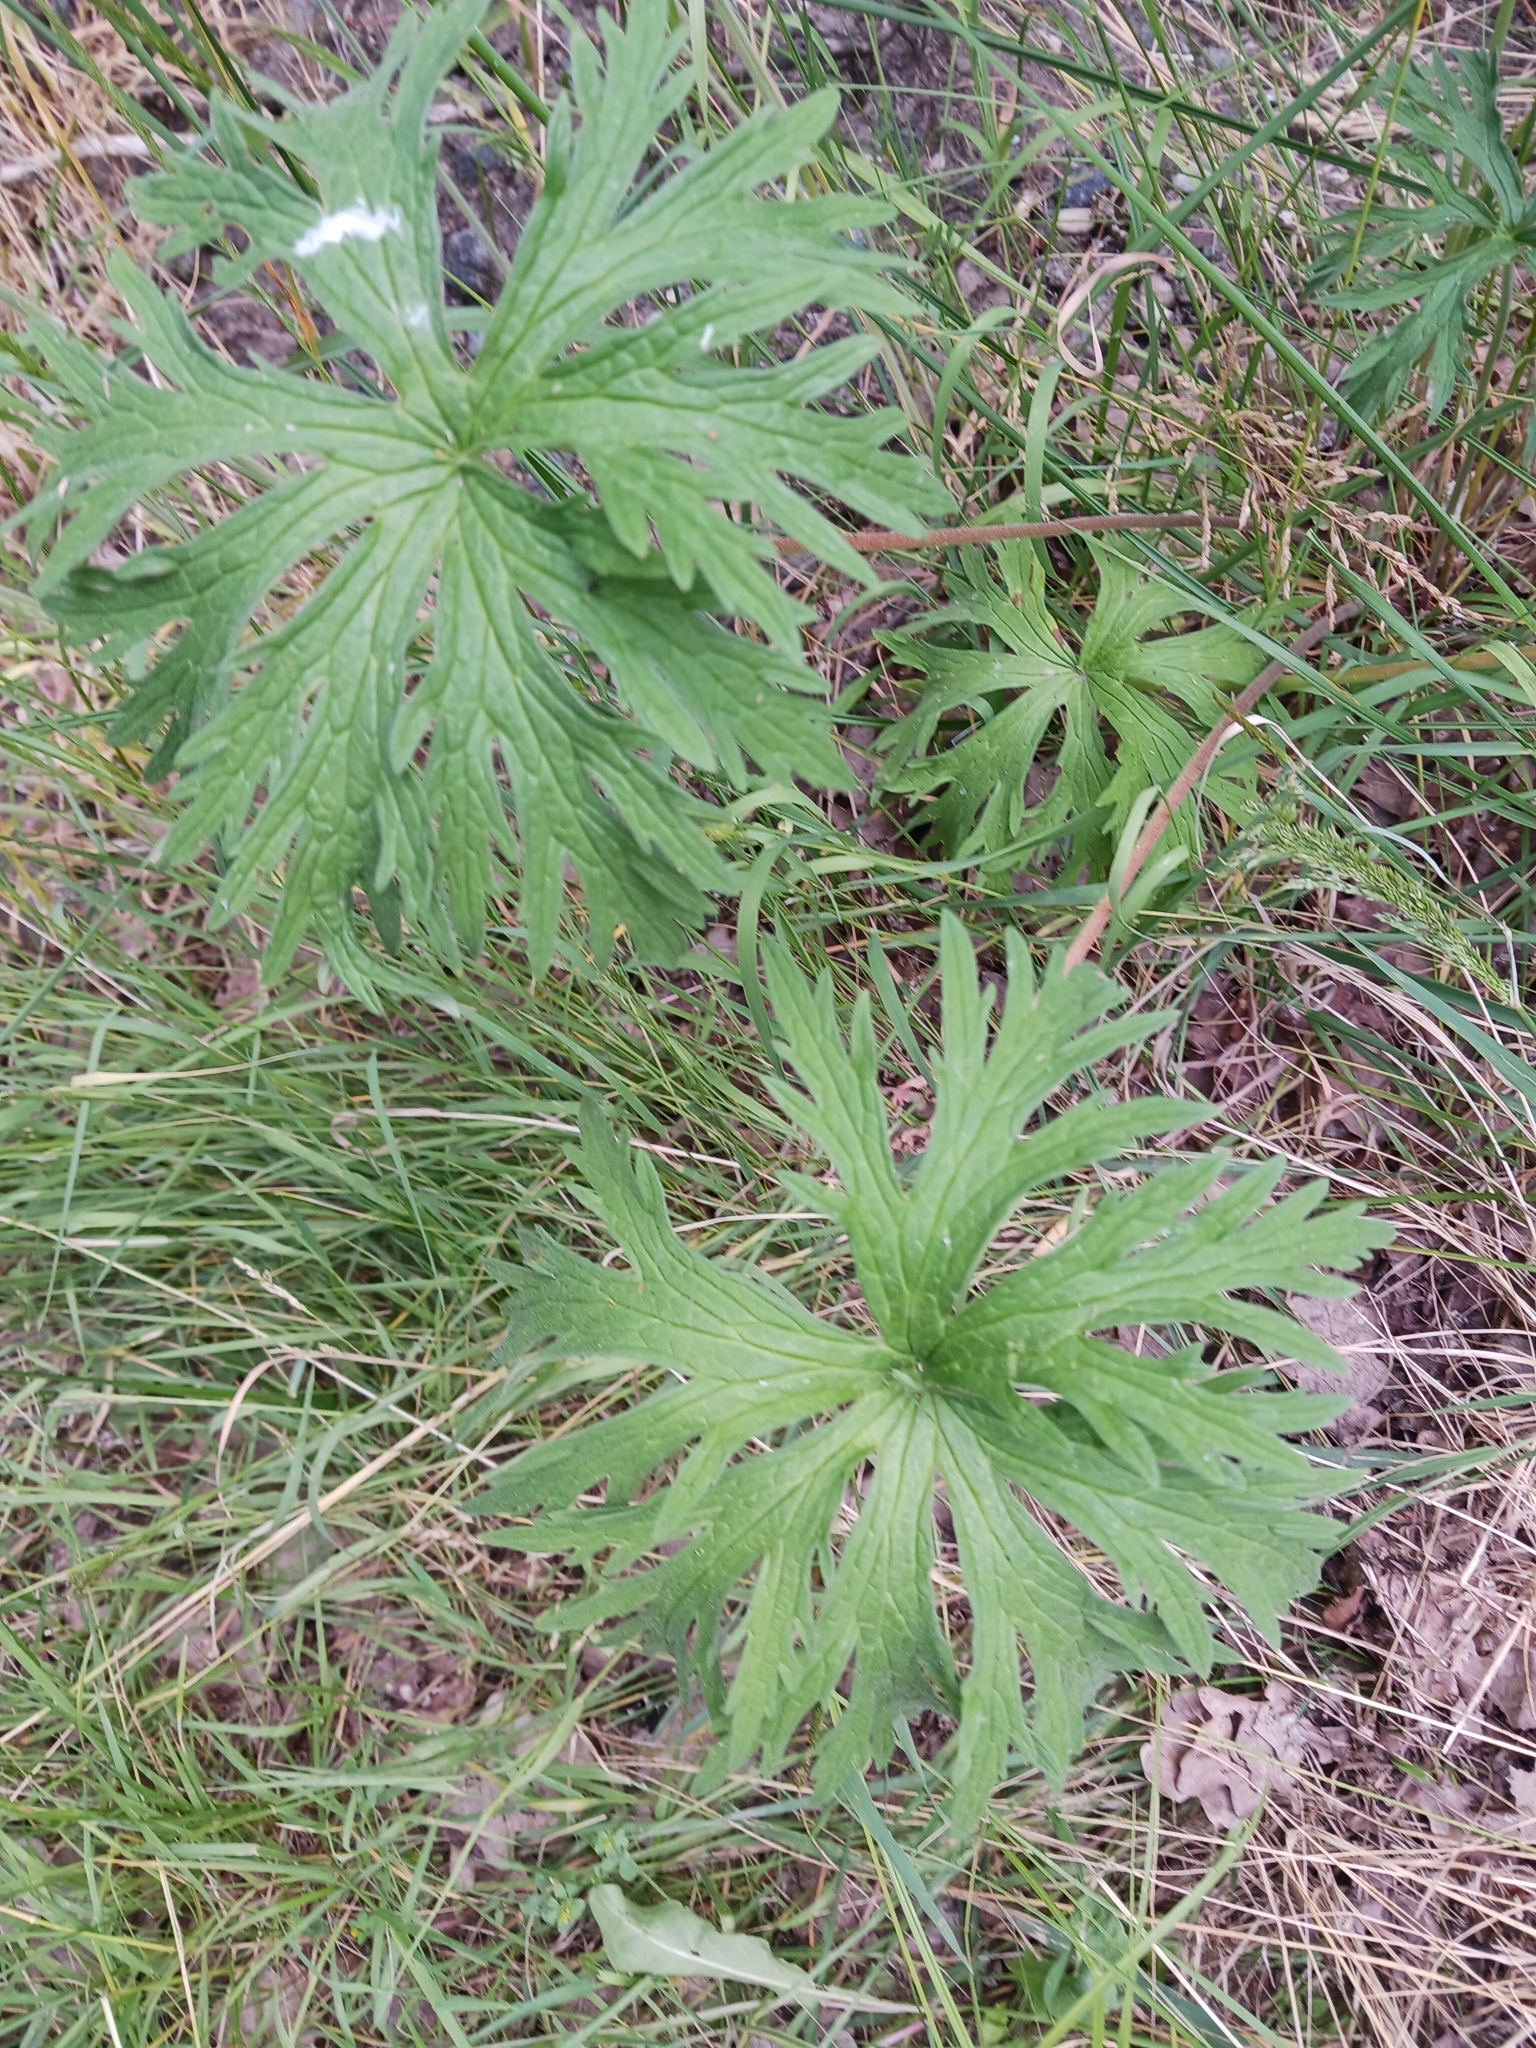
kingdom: Plantae
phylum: Tracheophyta
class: Magnoliopsida
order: Geraniales
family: Geraniaceae
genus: Geranium
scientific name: Geranium pratense
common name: Meadow crane's-bill
